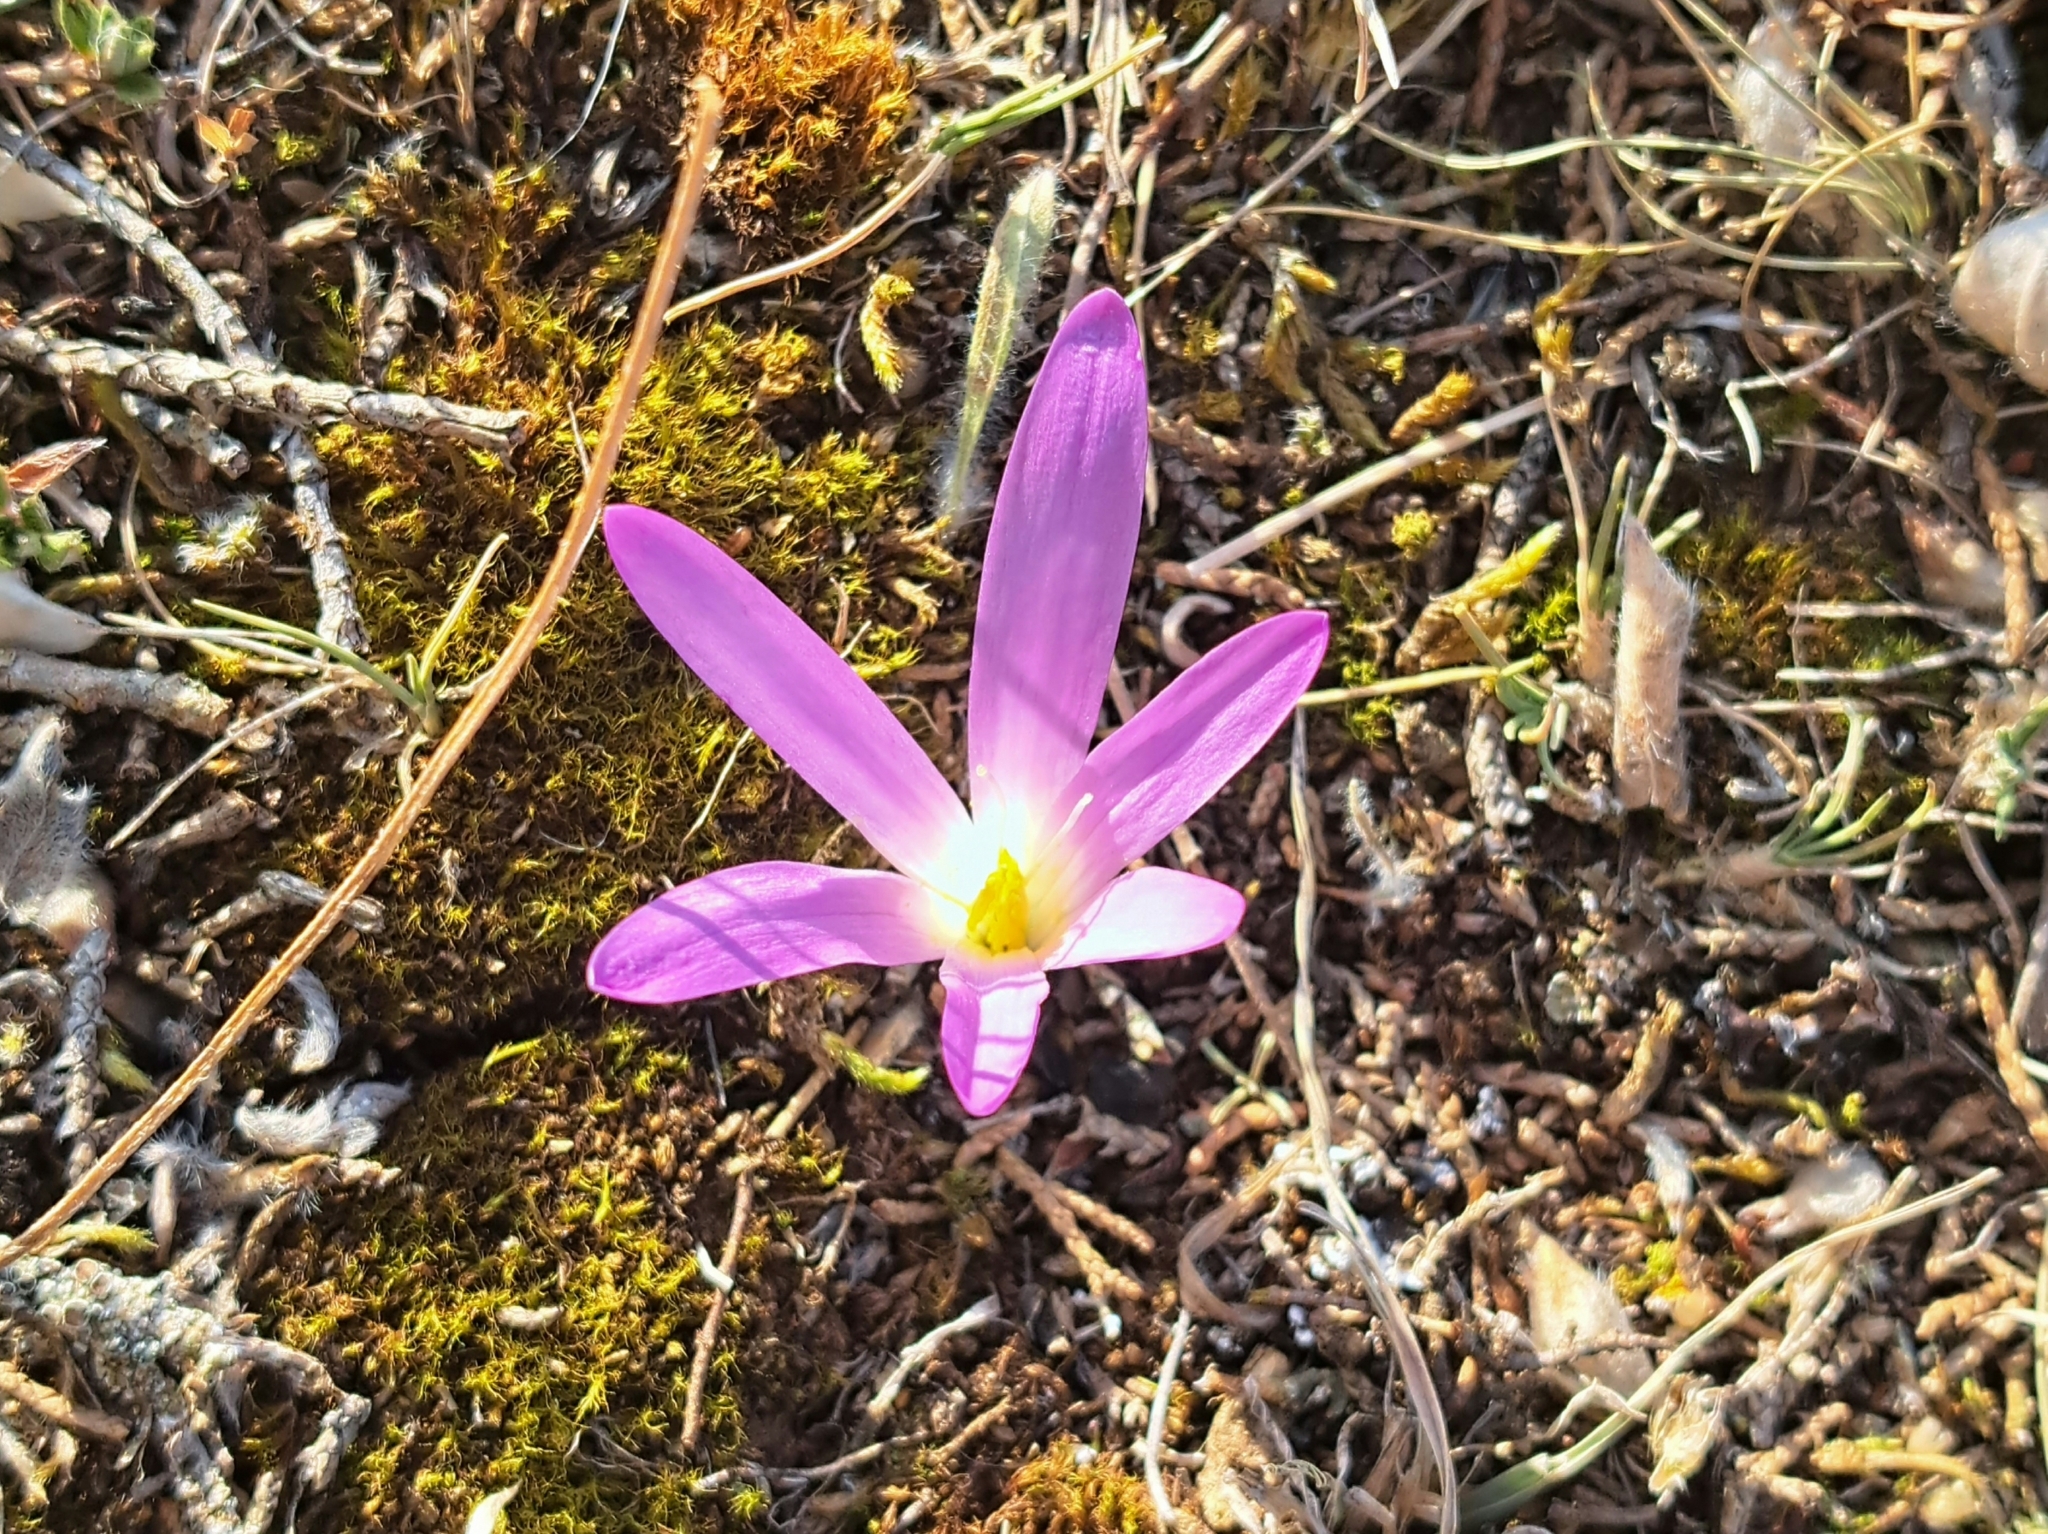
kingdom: Plantae
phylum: Tracheophyta
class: Liliopsida
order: Liliales
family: Colchicaceae
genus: Colchicum
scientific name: Colchicum montanum
